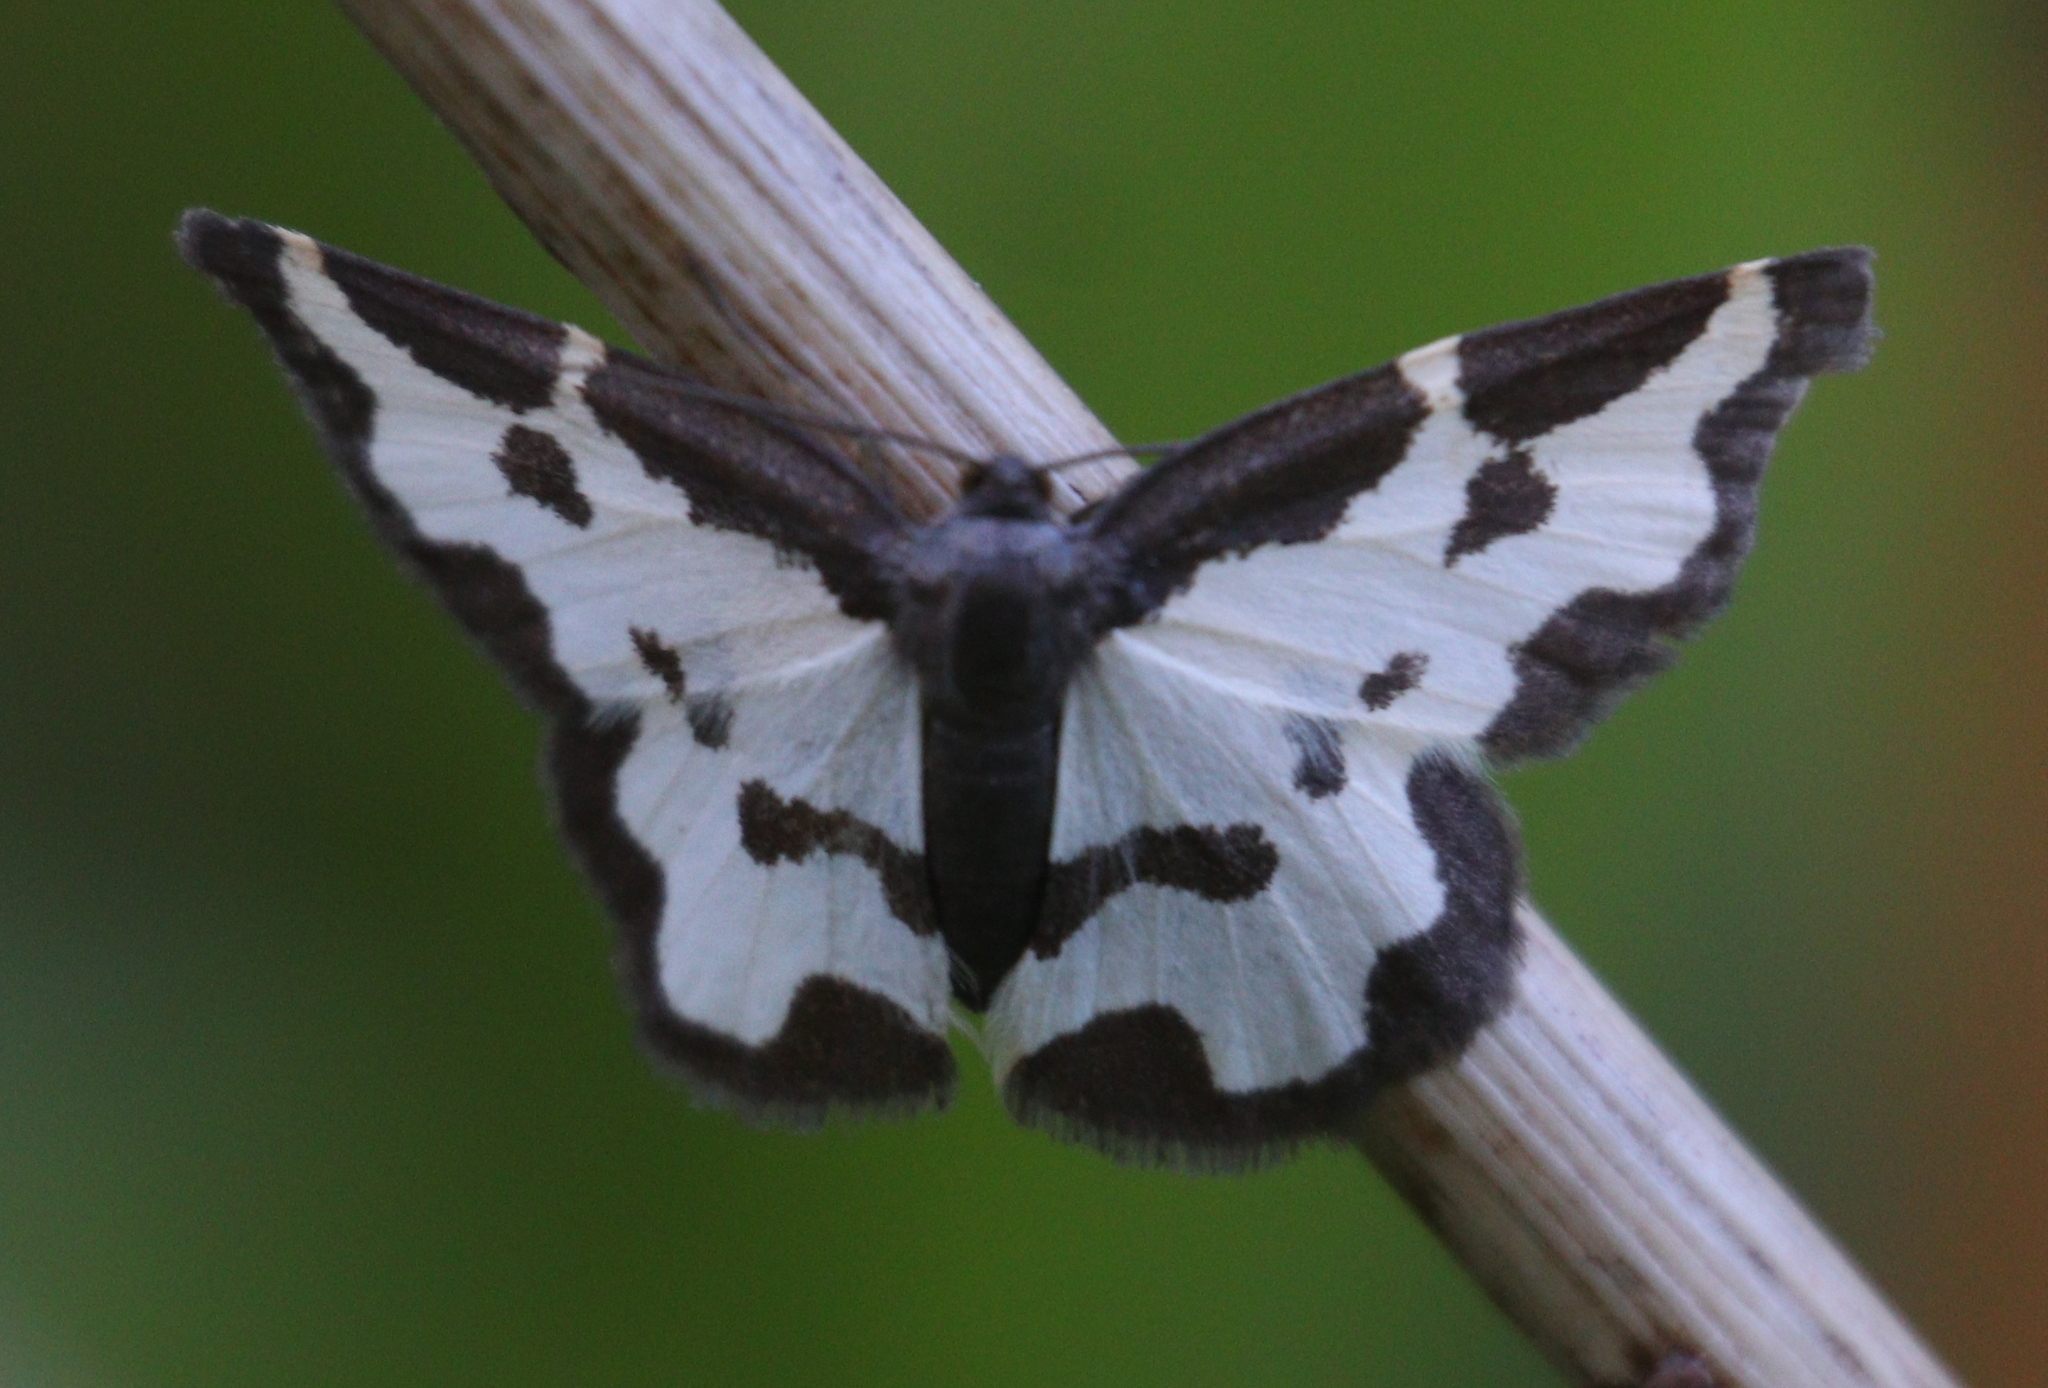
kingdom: Animalia
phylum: Arthropoda
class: Insecta
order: Lepidoptera
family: Geometridae
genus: Lomaspilis
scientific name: Lomaspilis marginata
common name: Clouded border
